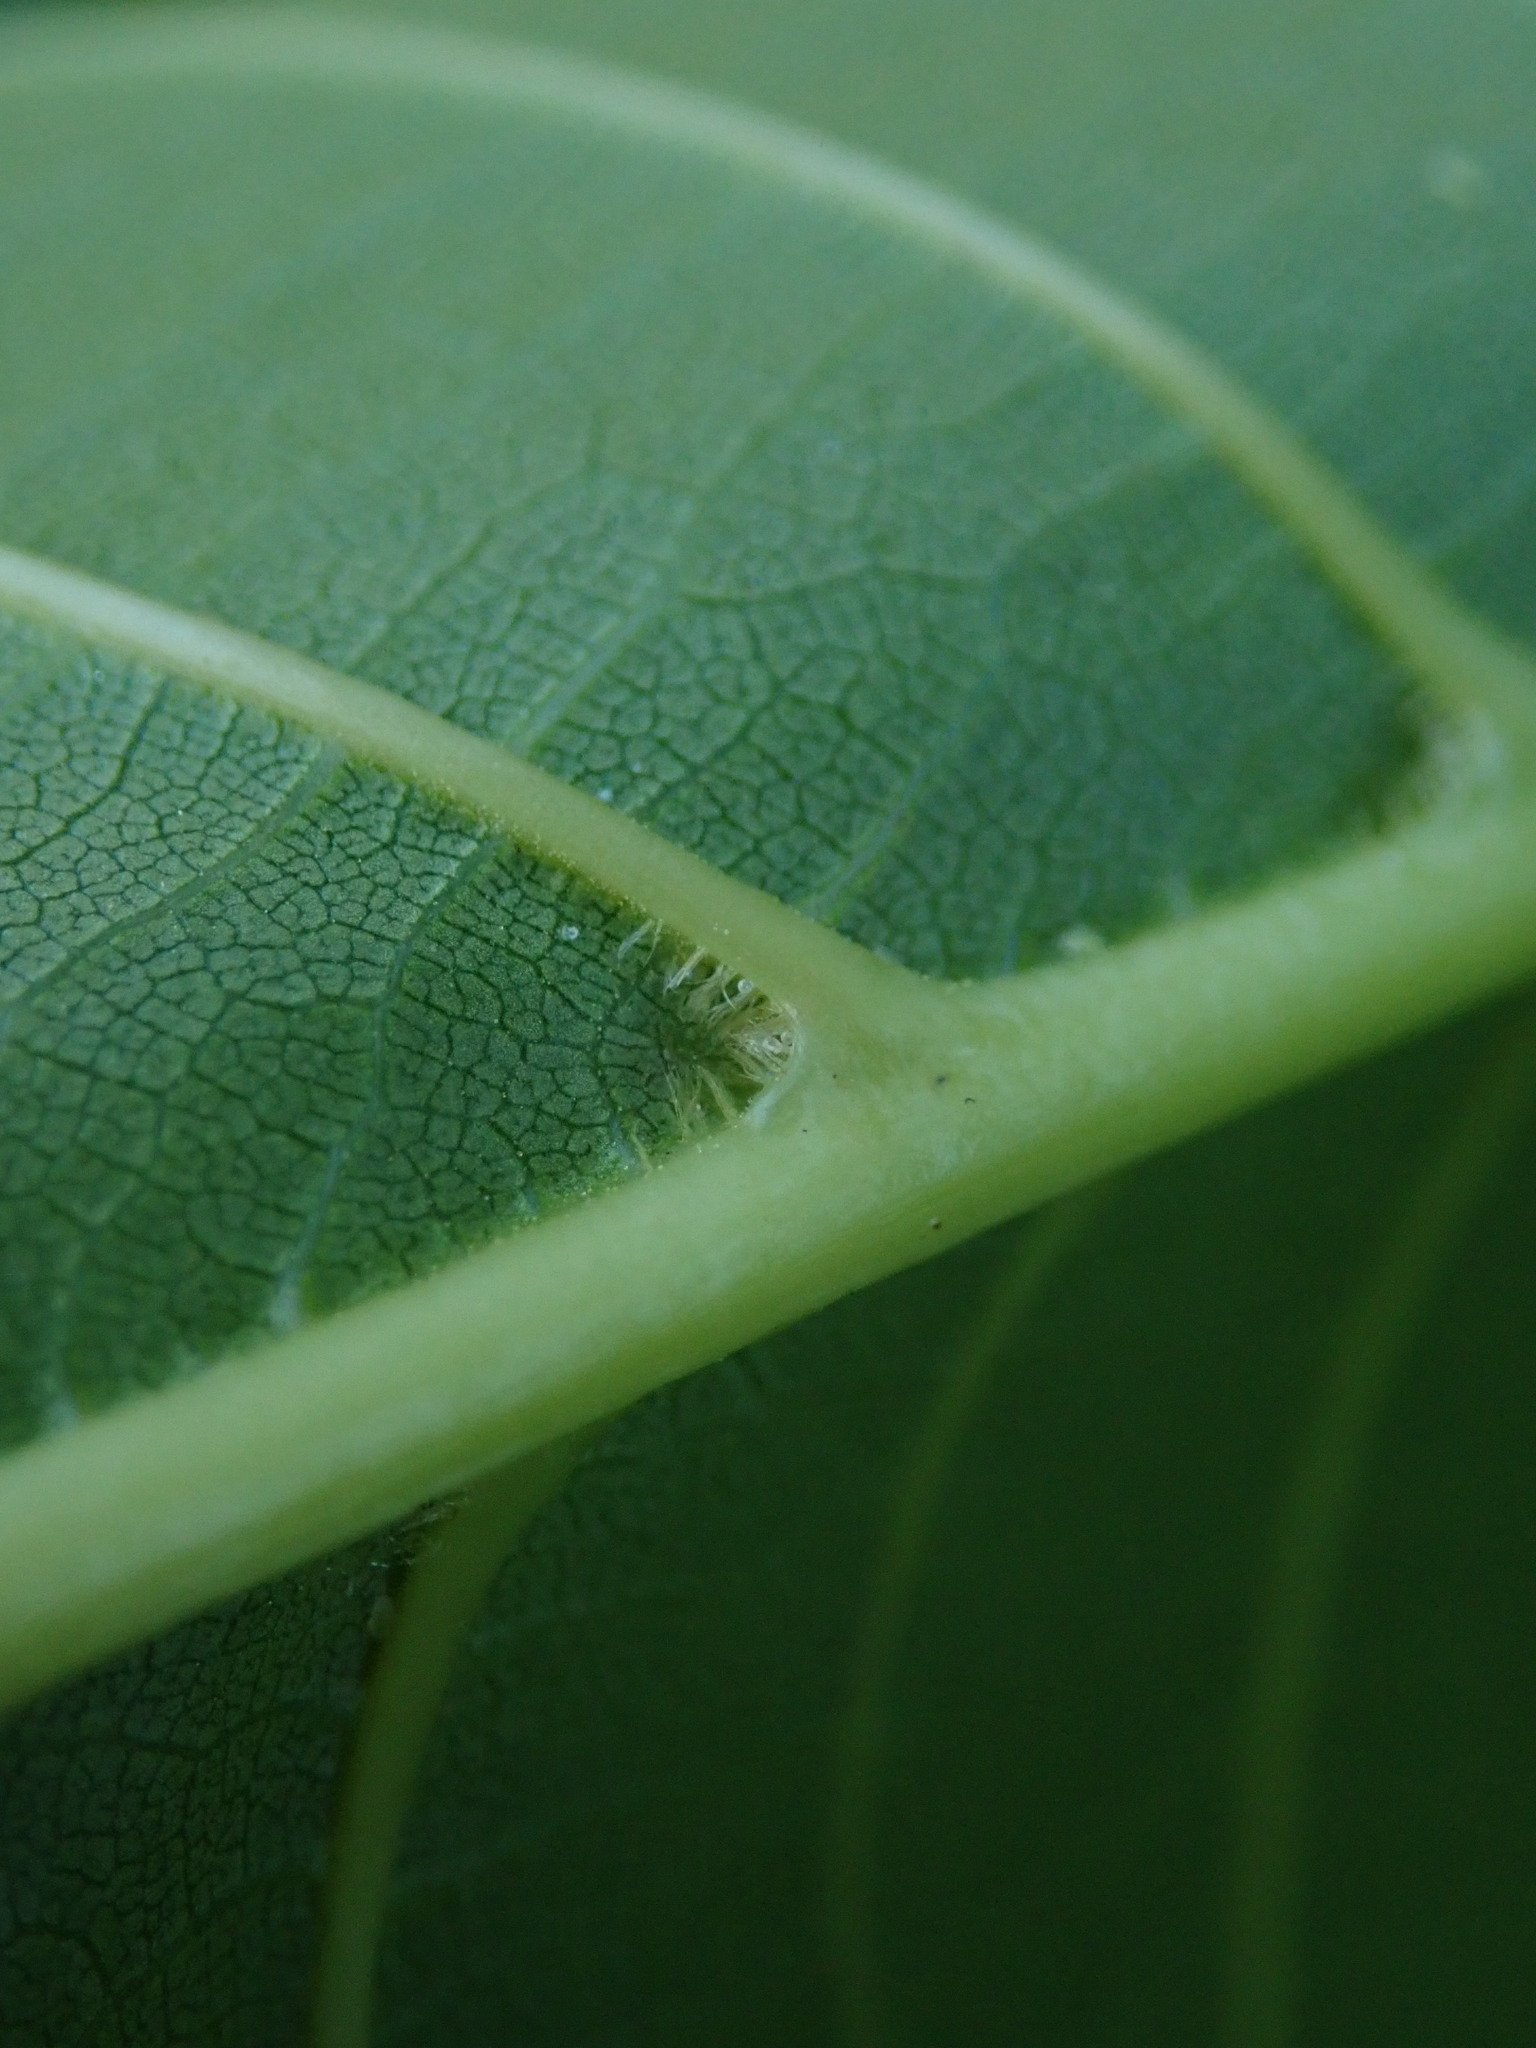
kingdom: Plantae
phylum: Tracheophyta
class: Magnoliopsida
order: Fagales
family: Juglandaceae
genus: Juglans
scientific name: Juglans regia
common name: Walnut
